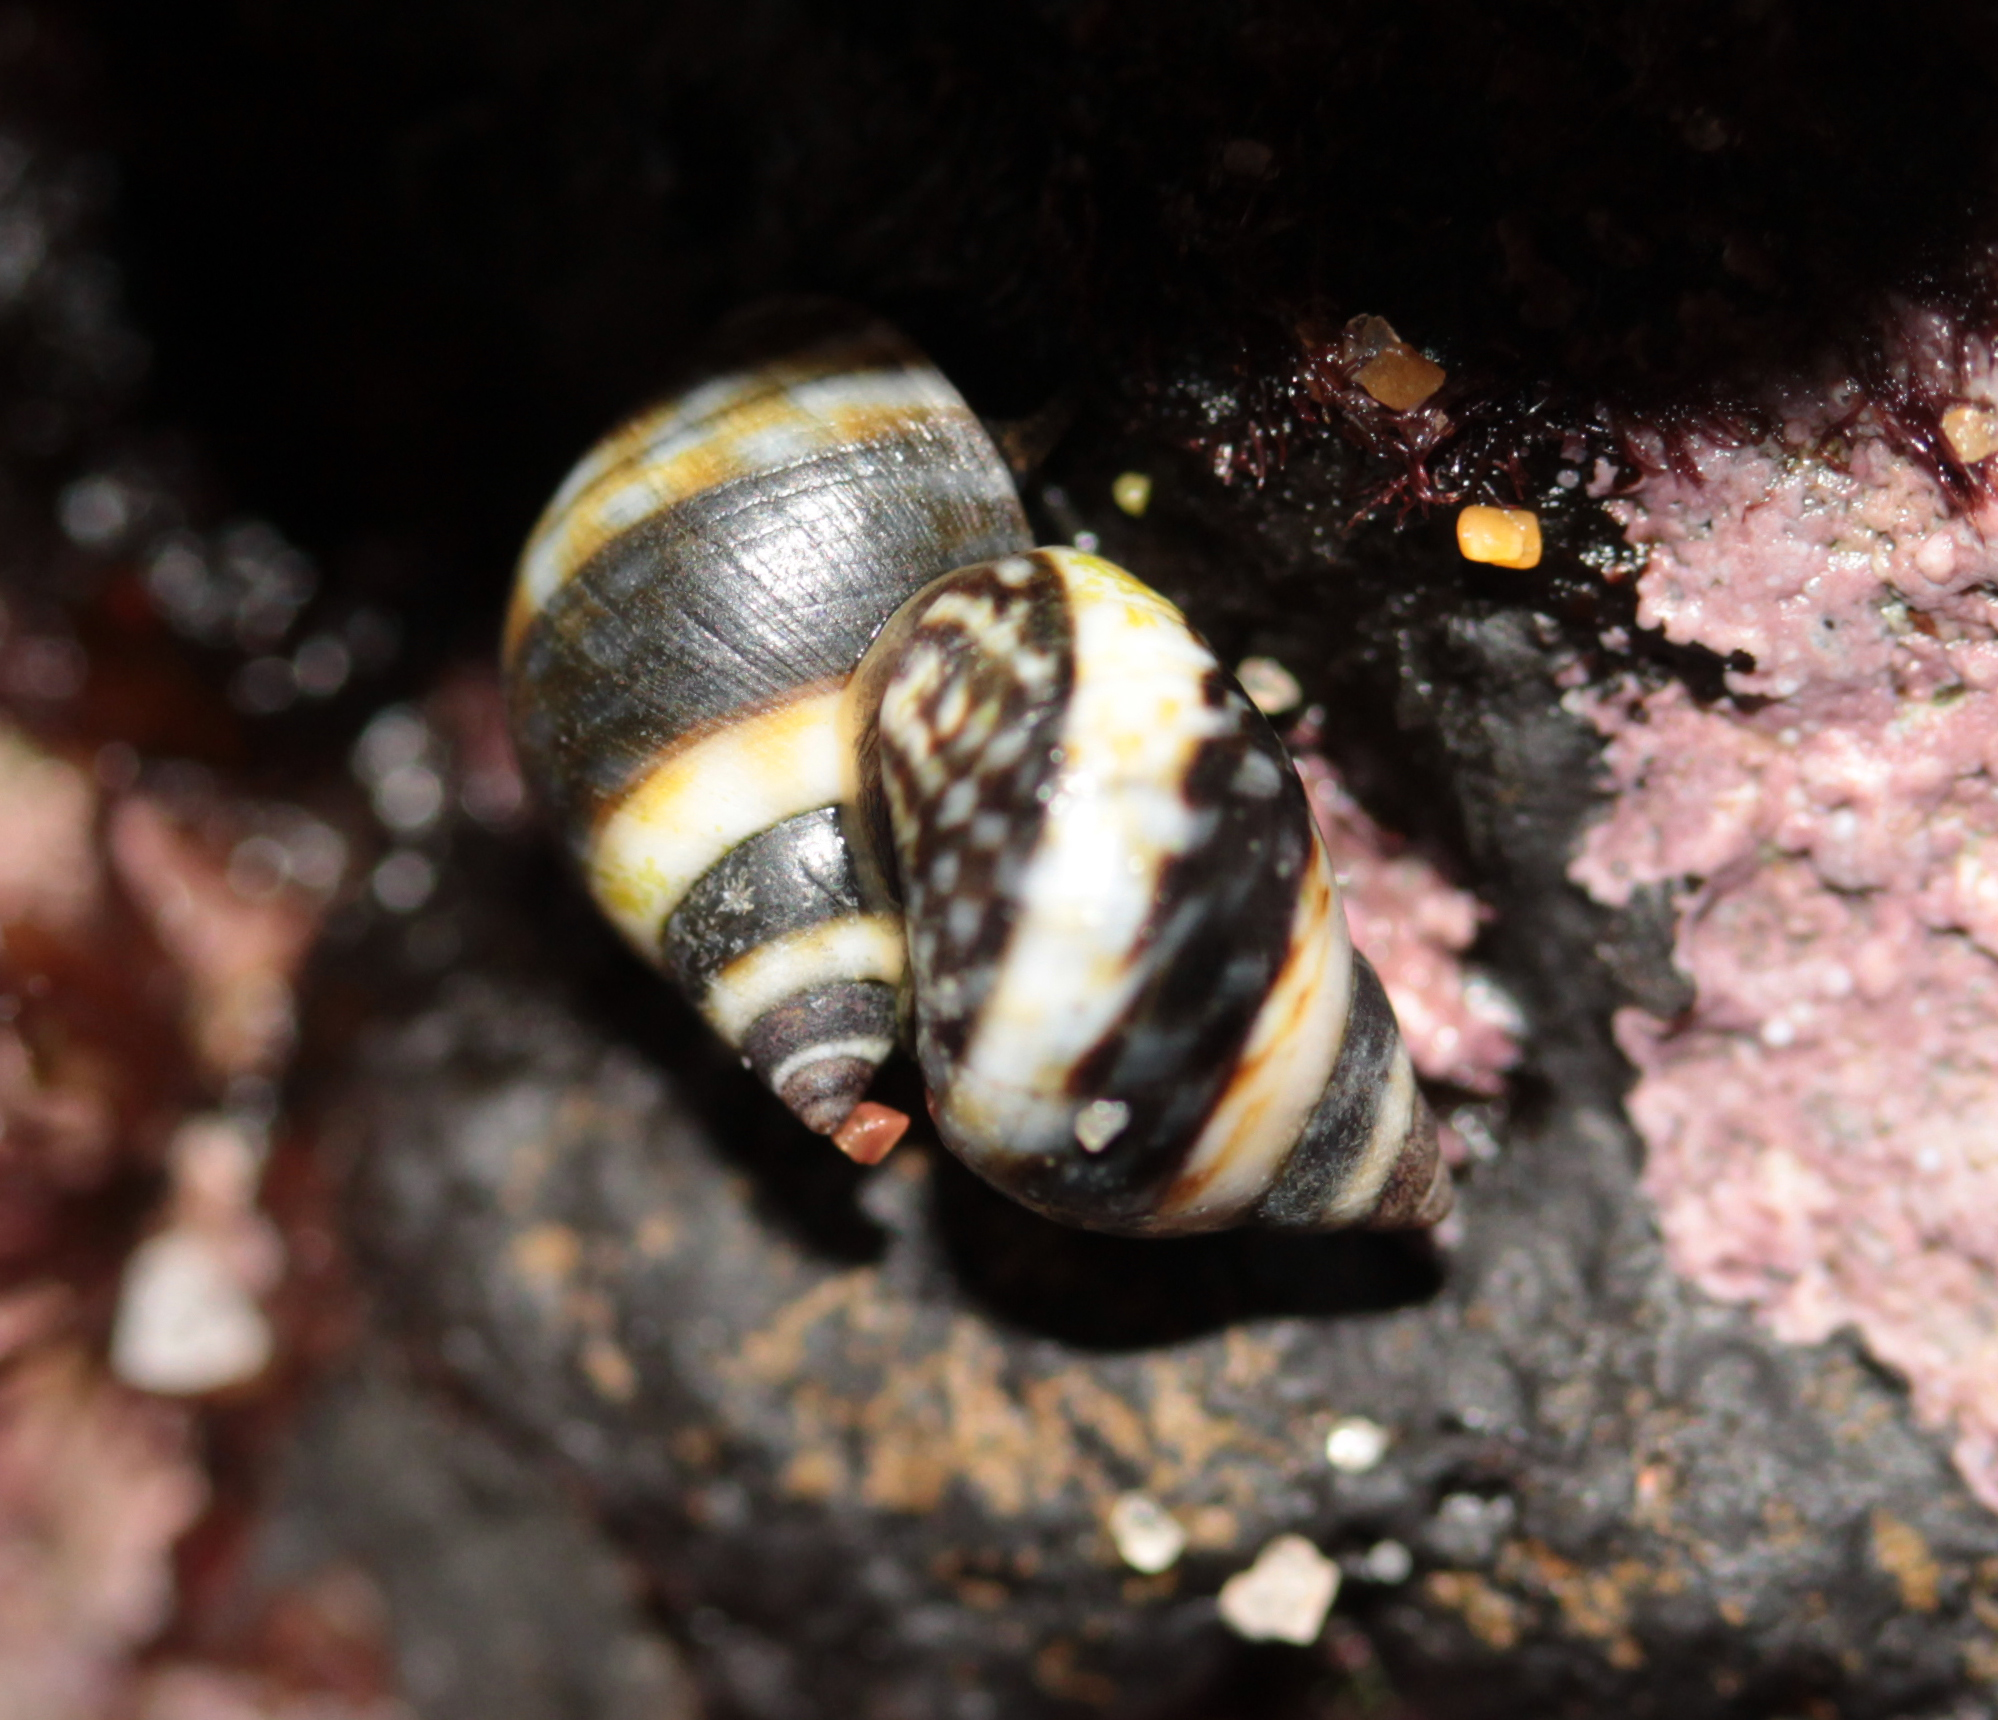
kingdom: Animalia
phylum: Mollusca
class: Gastropoda
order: Littorinimorpha
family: Littorinidae
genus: Littorina
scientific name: Littorina scutulata
